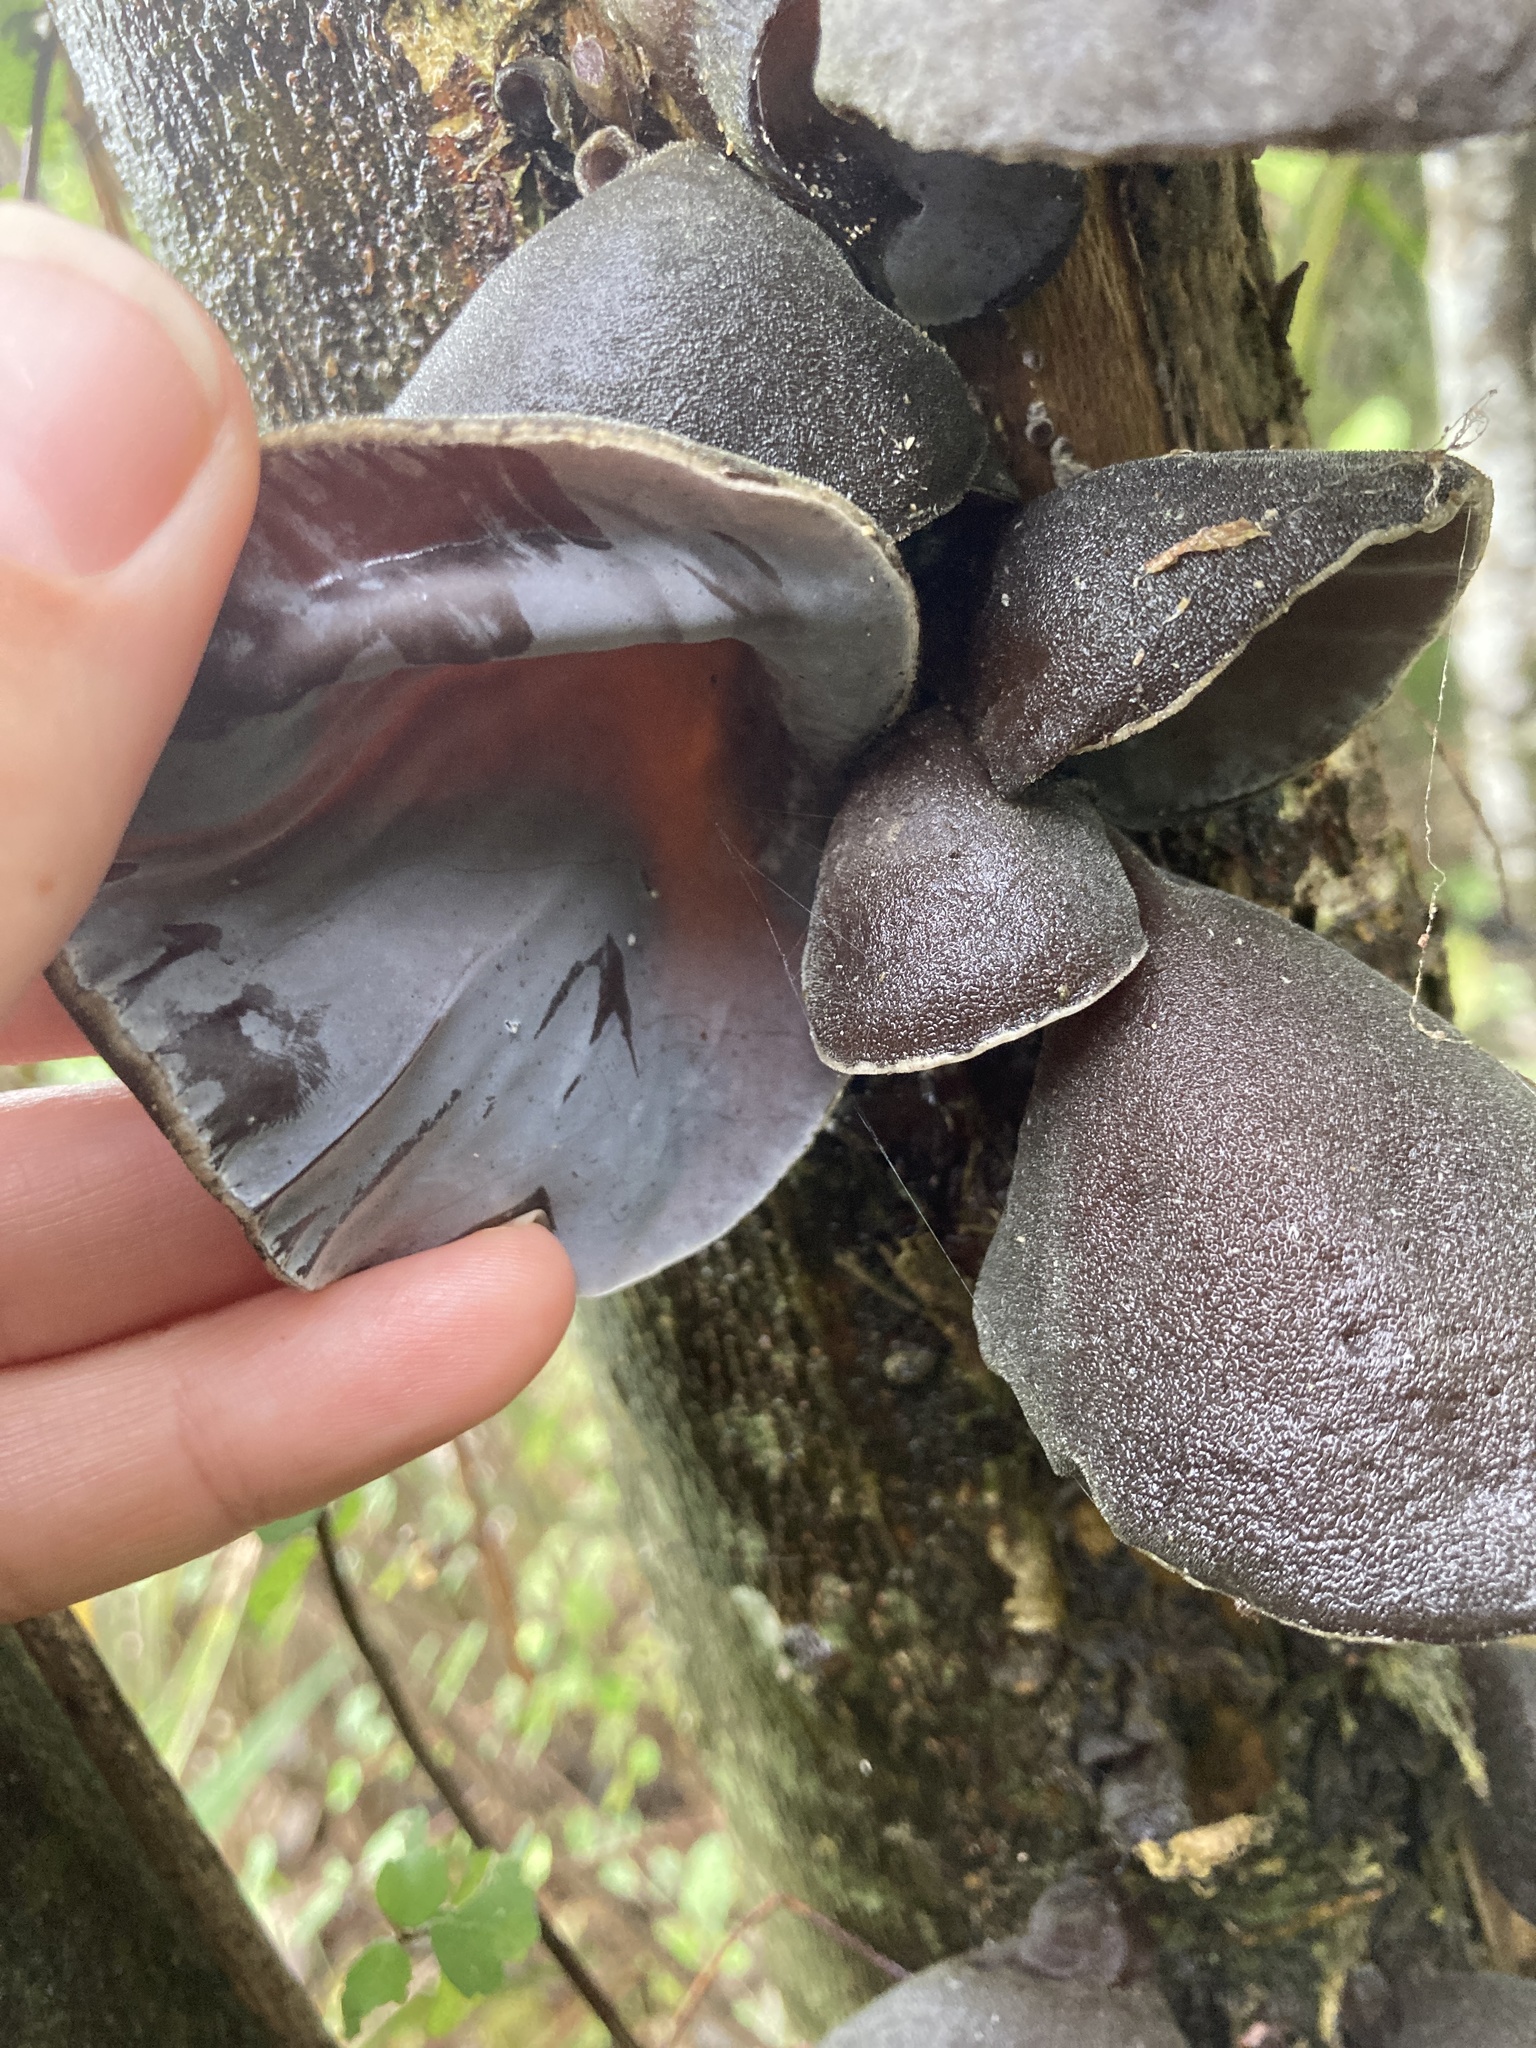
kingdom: Fungi
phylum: Basidiomycota
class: Agaricomycetes
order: Auriculariales
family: Auriculariaceae
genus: Auricularia
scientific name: Auricularia cornea
